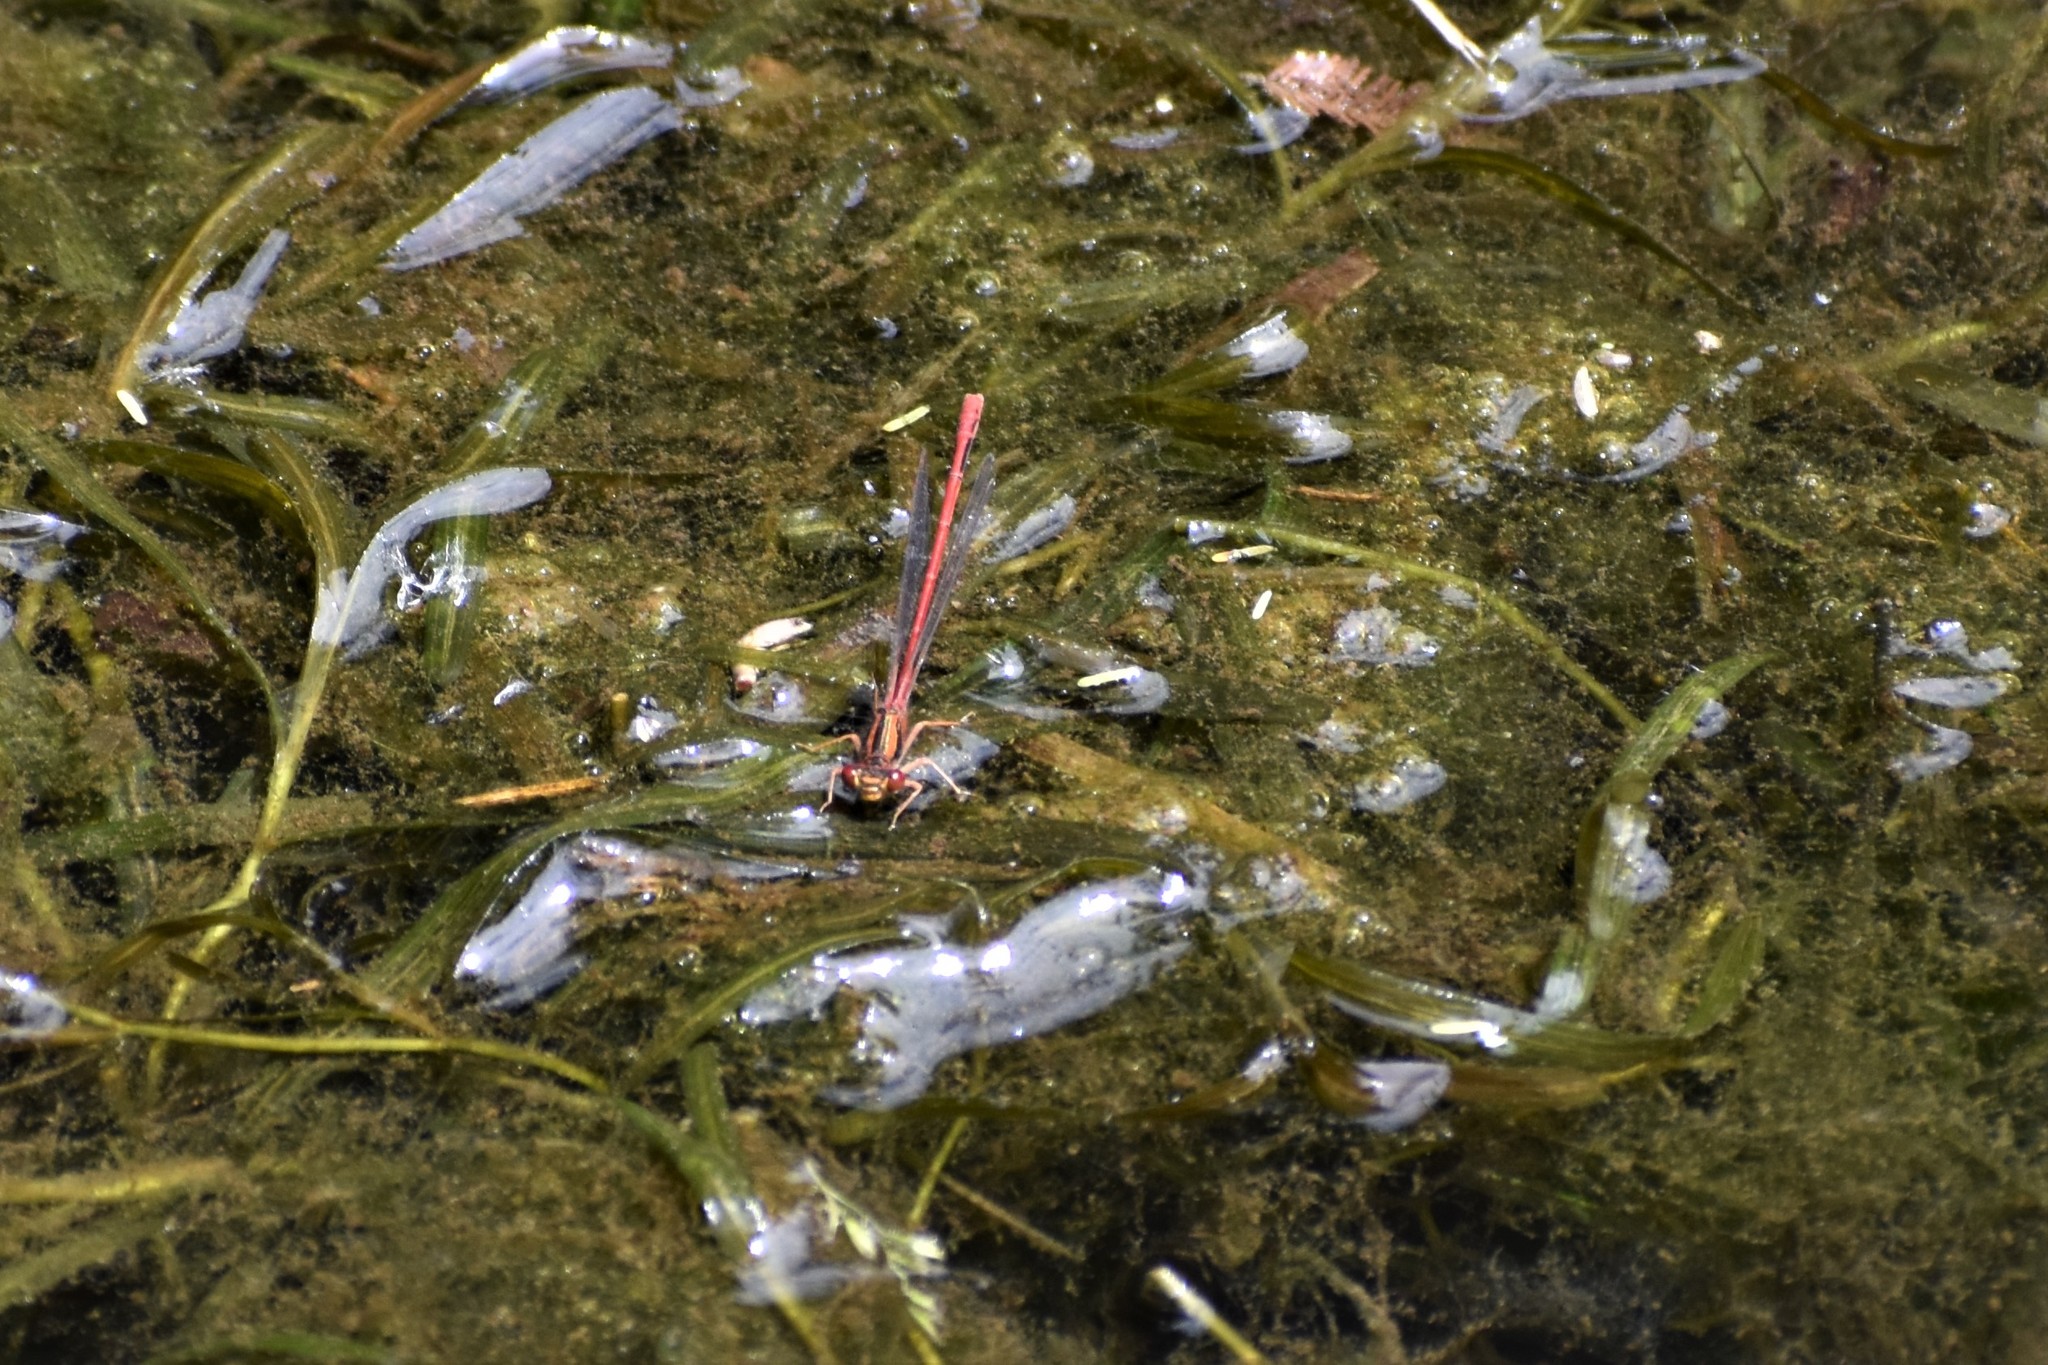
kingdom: Animalia
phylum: Arthropoda
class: Insecta
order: Odonata
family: Coenagrionidae
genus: Xanthocnemis
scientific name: Xanthocnemis zealandica
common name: Common redcoat damselfly
